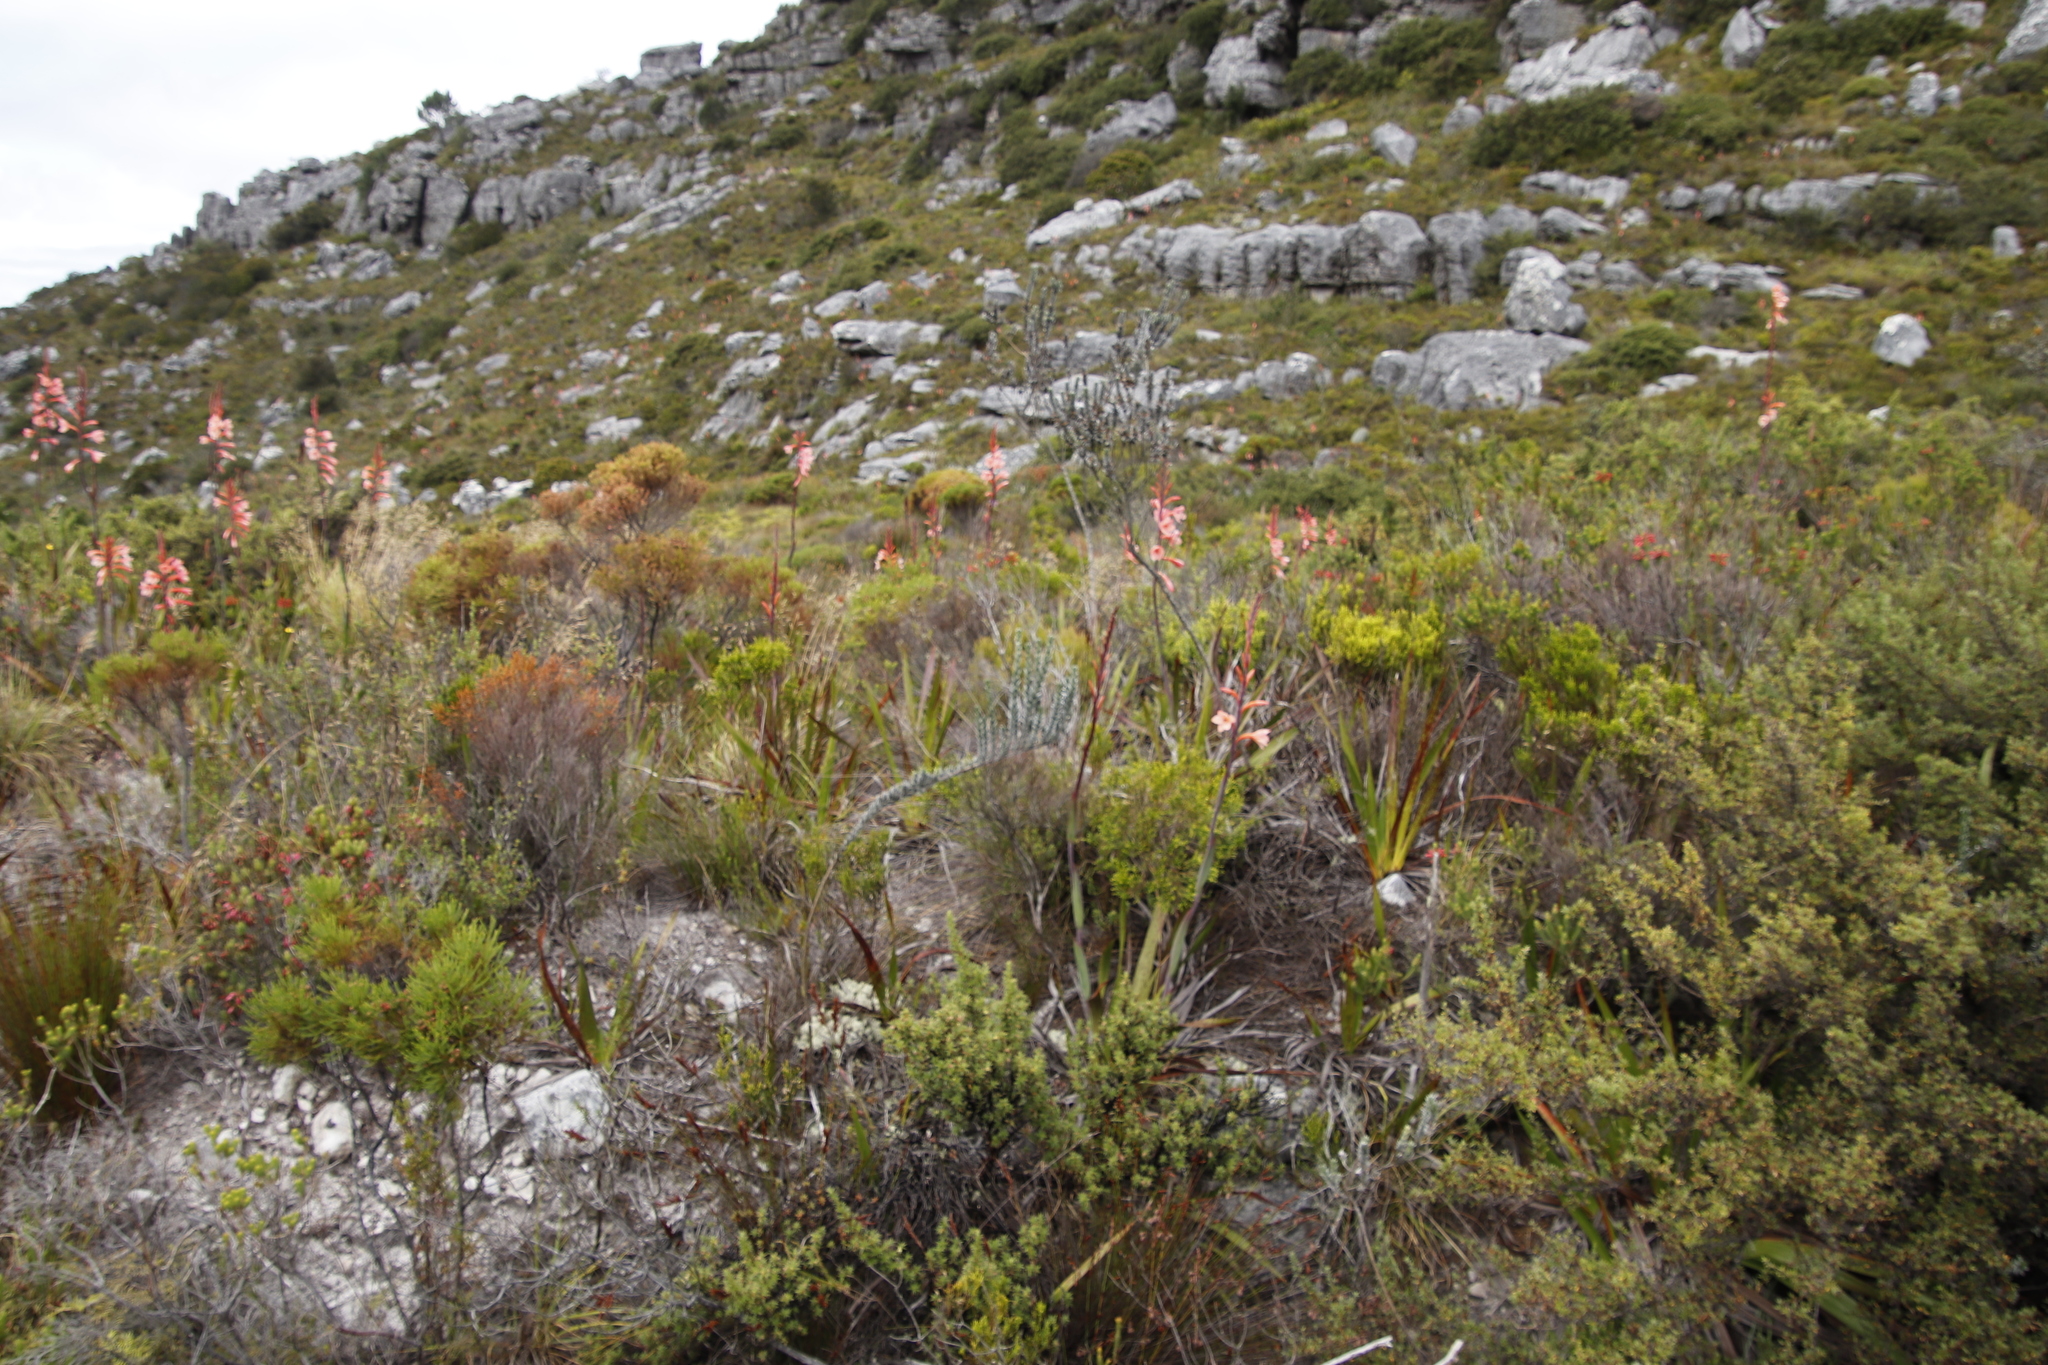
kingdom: Plantae
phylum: Tracheophyta
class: Magnoliopsida
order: Fabales
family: Fabaceae
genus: Amphithalea
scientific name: Amphithalea imbricata
